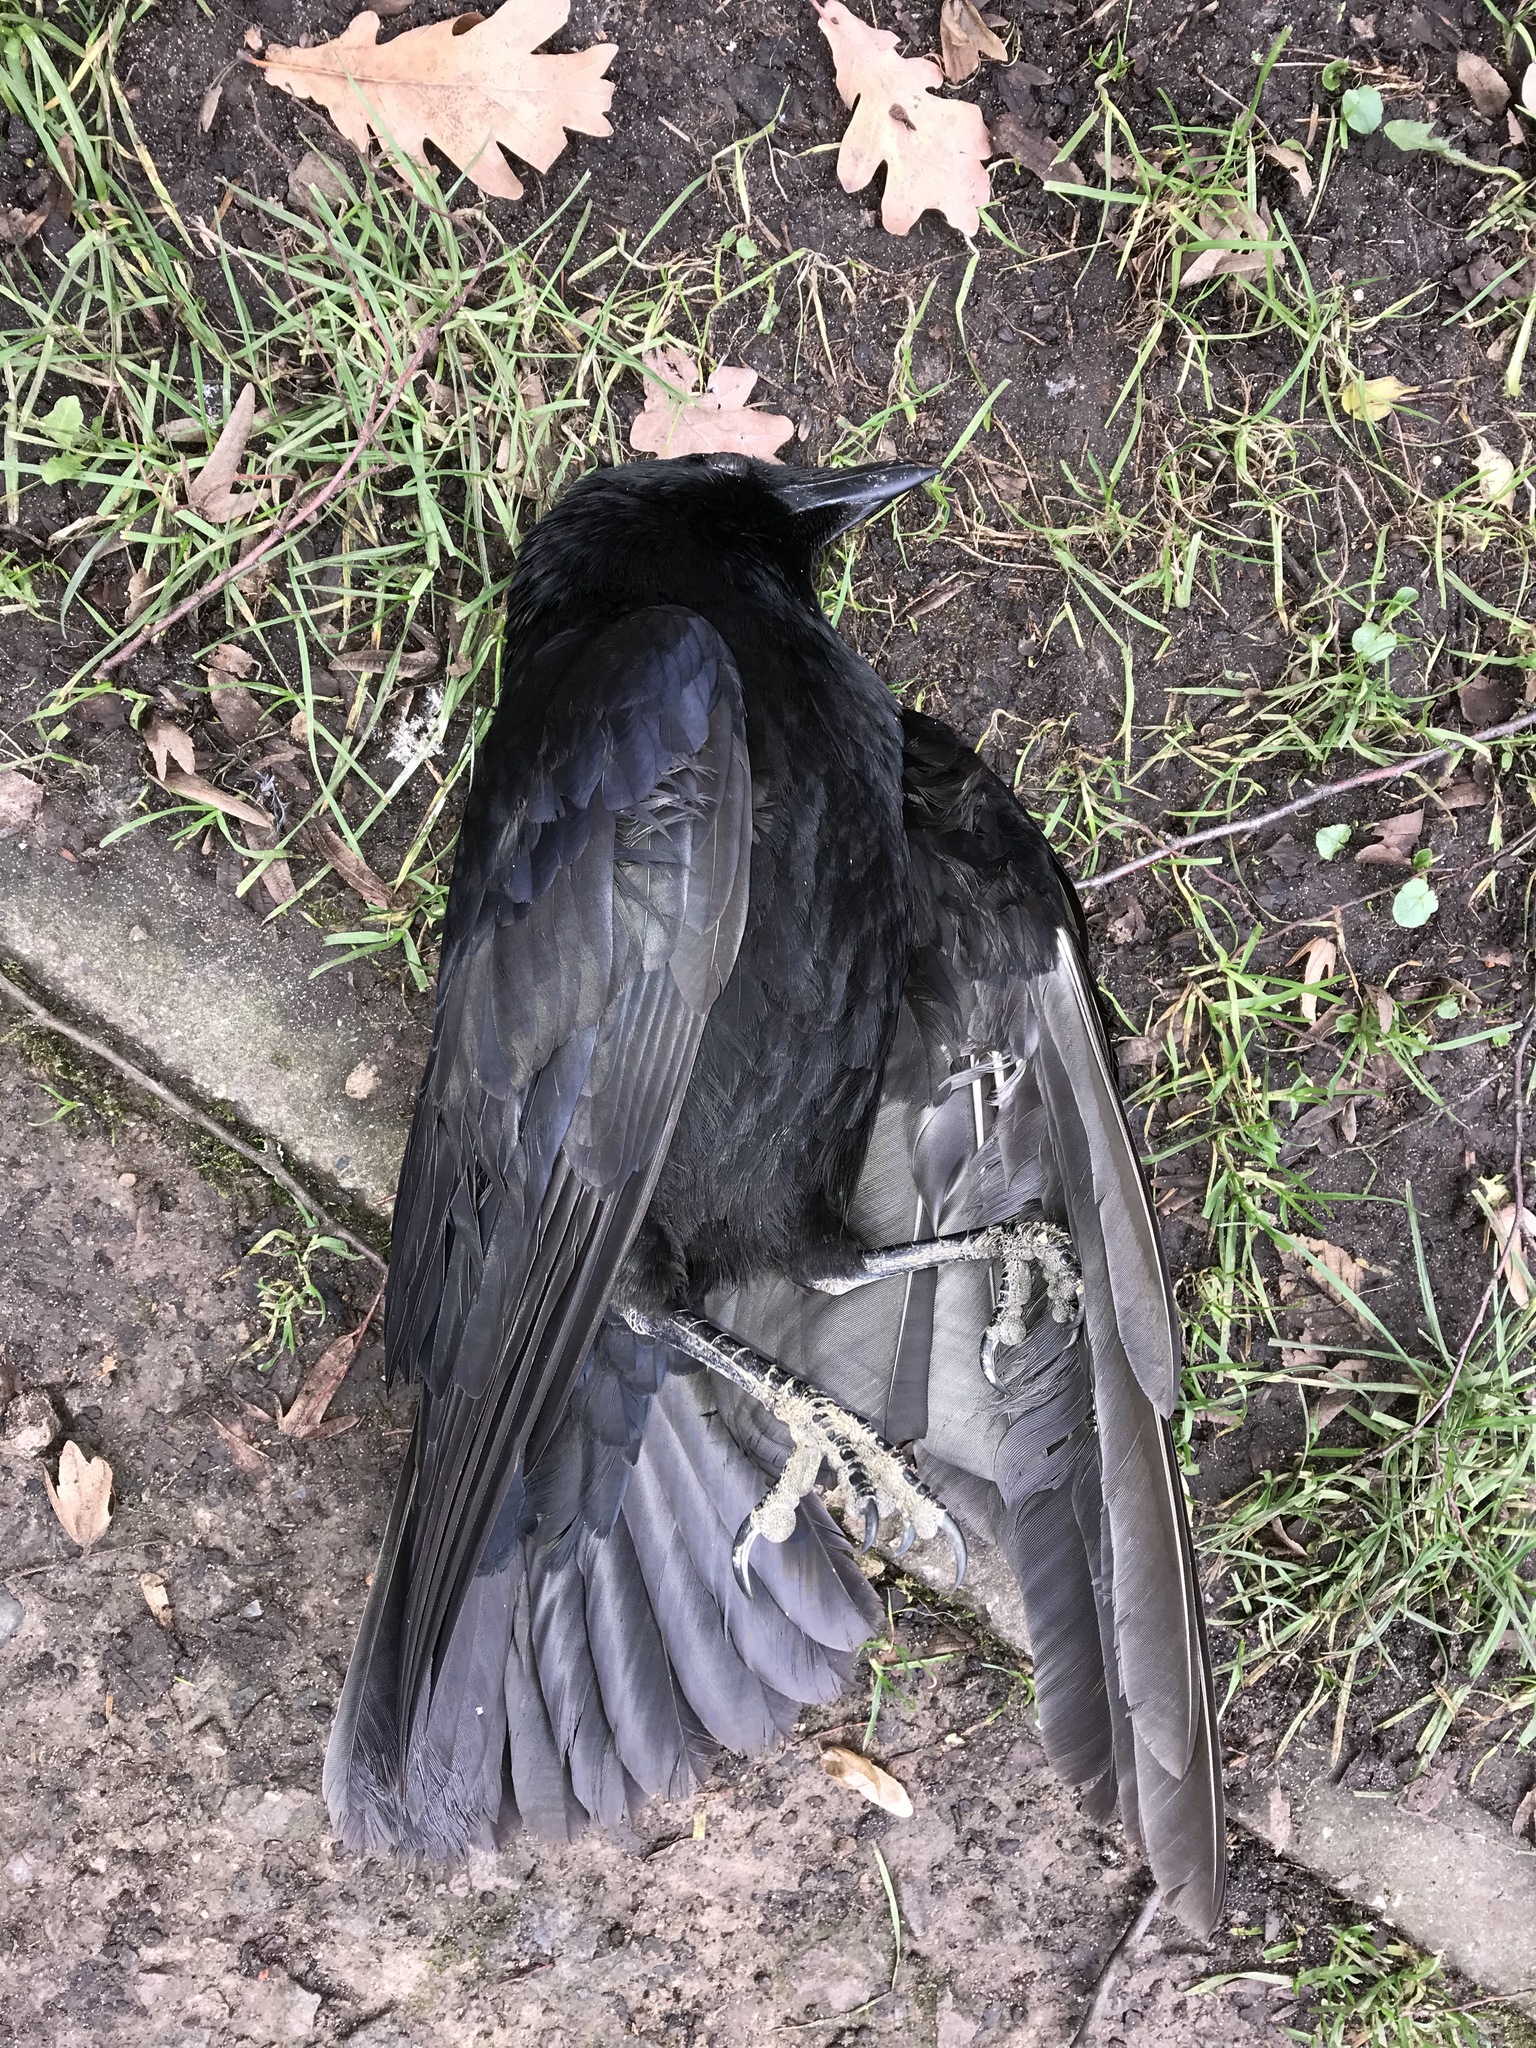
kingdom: Animalia
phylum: Chordata
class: Aves
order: Passeriformes
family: Corvidae
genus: Corvus
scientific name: Corvus corone
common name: Carrion crow
